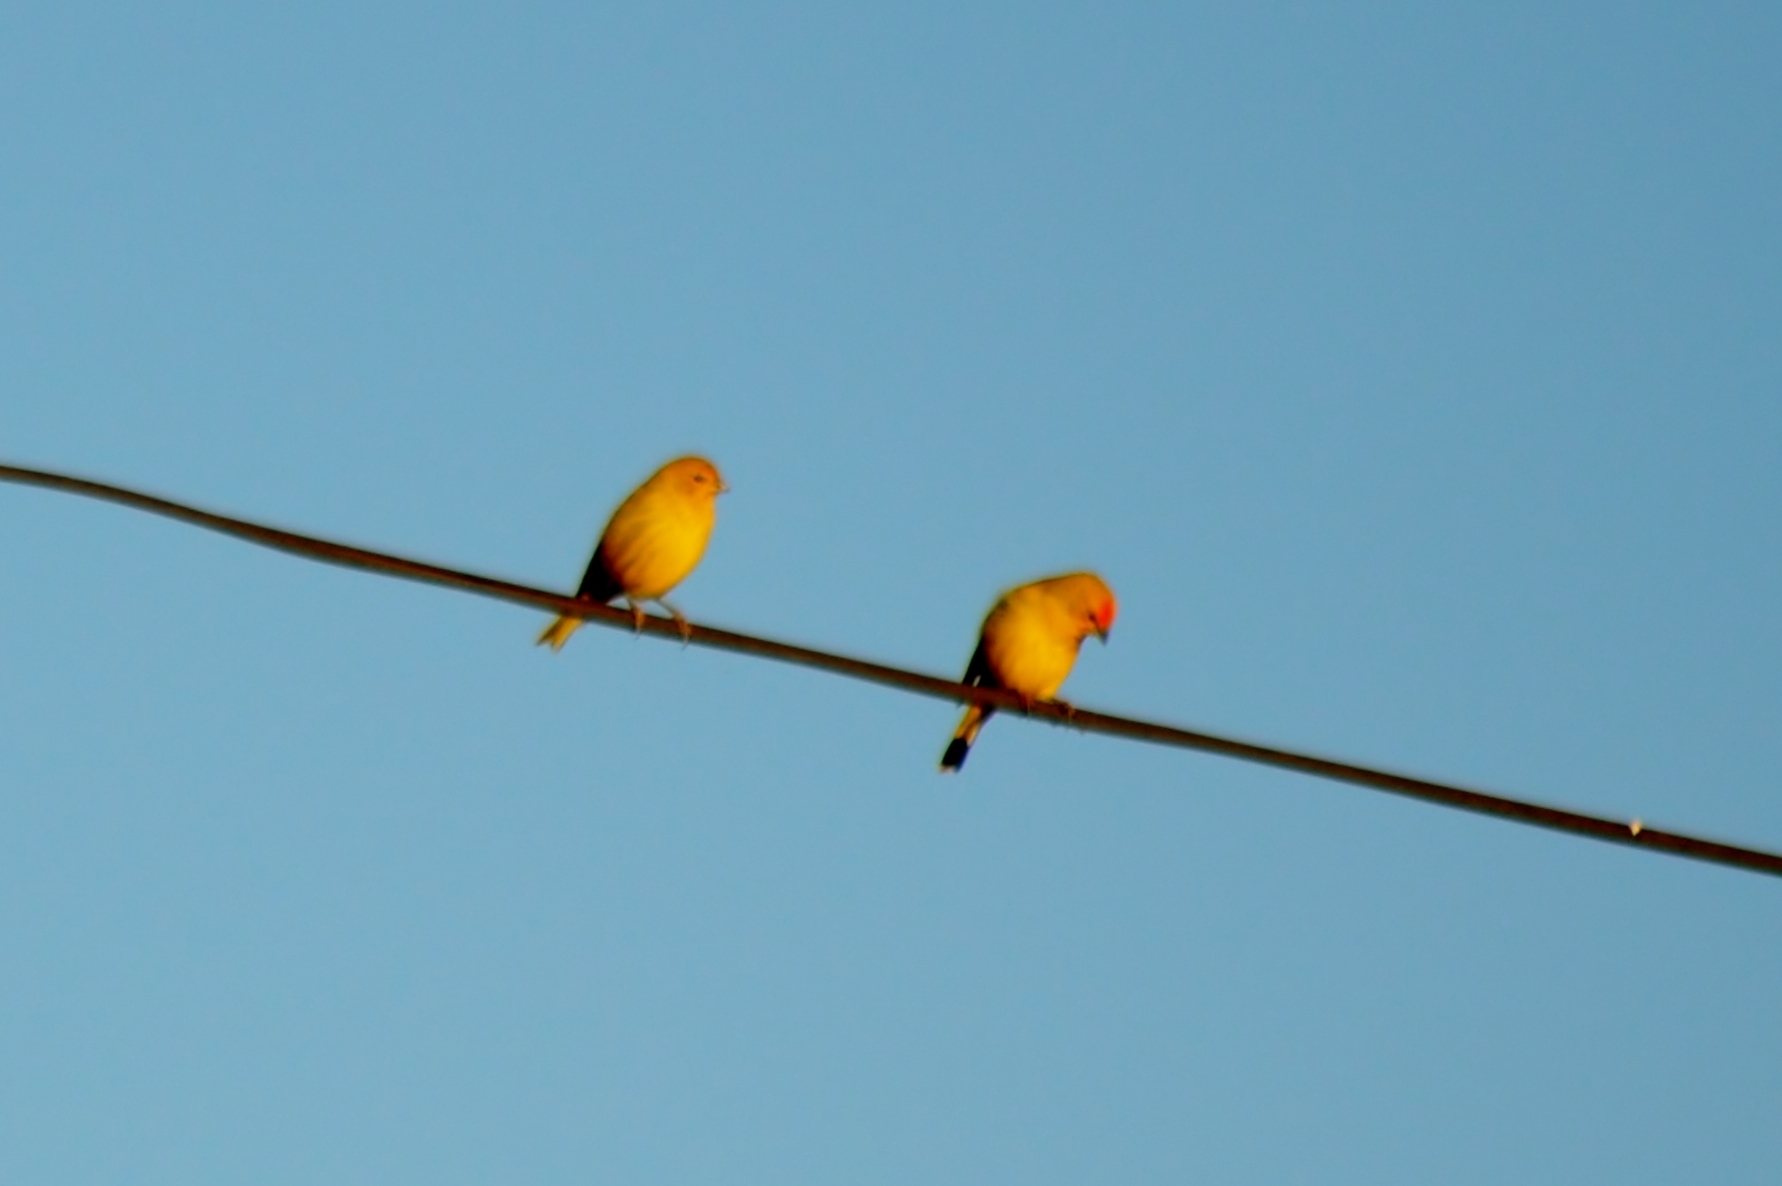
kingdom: Animalia
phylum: Chordata
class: Aves
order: Passeriformes
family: Thraupidae
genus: Sicalis
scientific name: Sicalis flaveola
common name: Saffron finch
